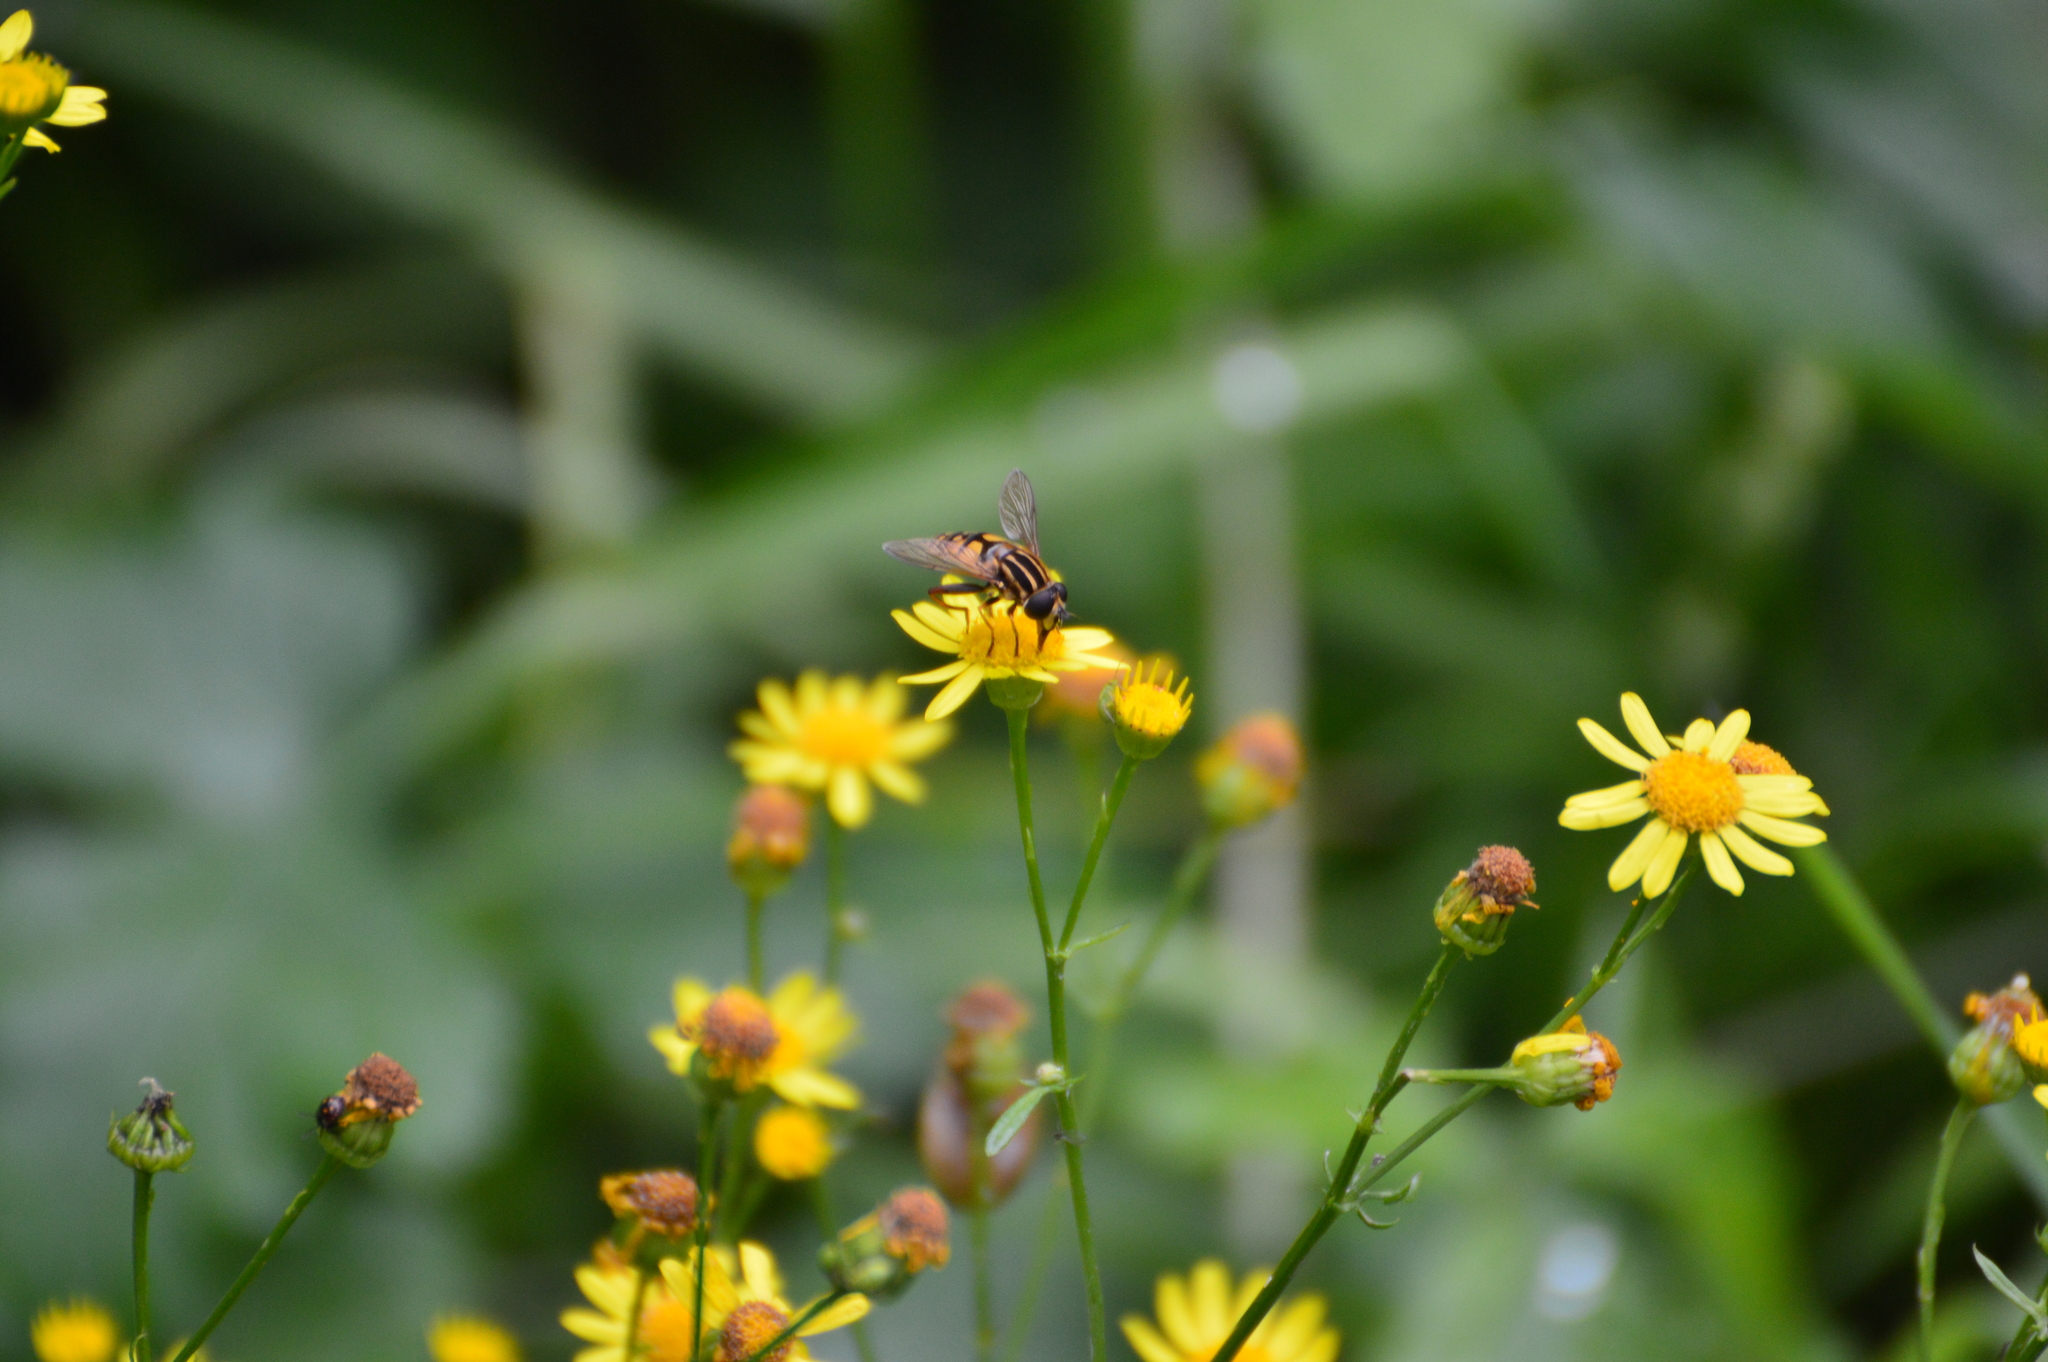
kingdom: Animalia
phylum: Arthropoda
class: Insecta
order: Diptera
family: Syrphidae
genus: Helophilus
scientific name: Helophilus pendulus
